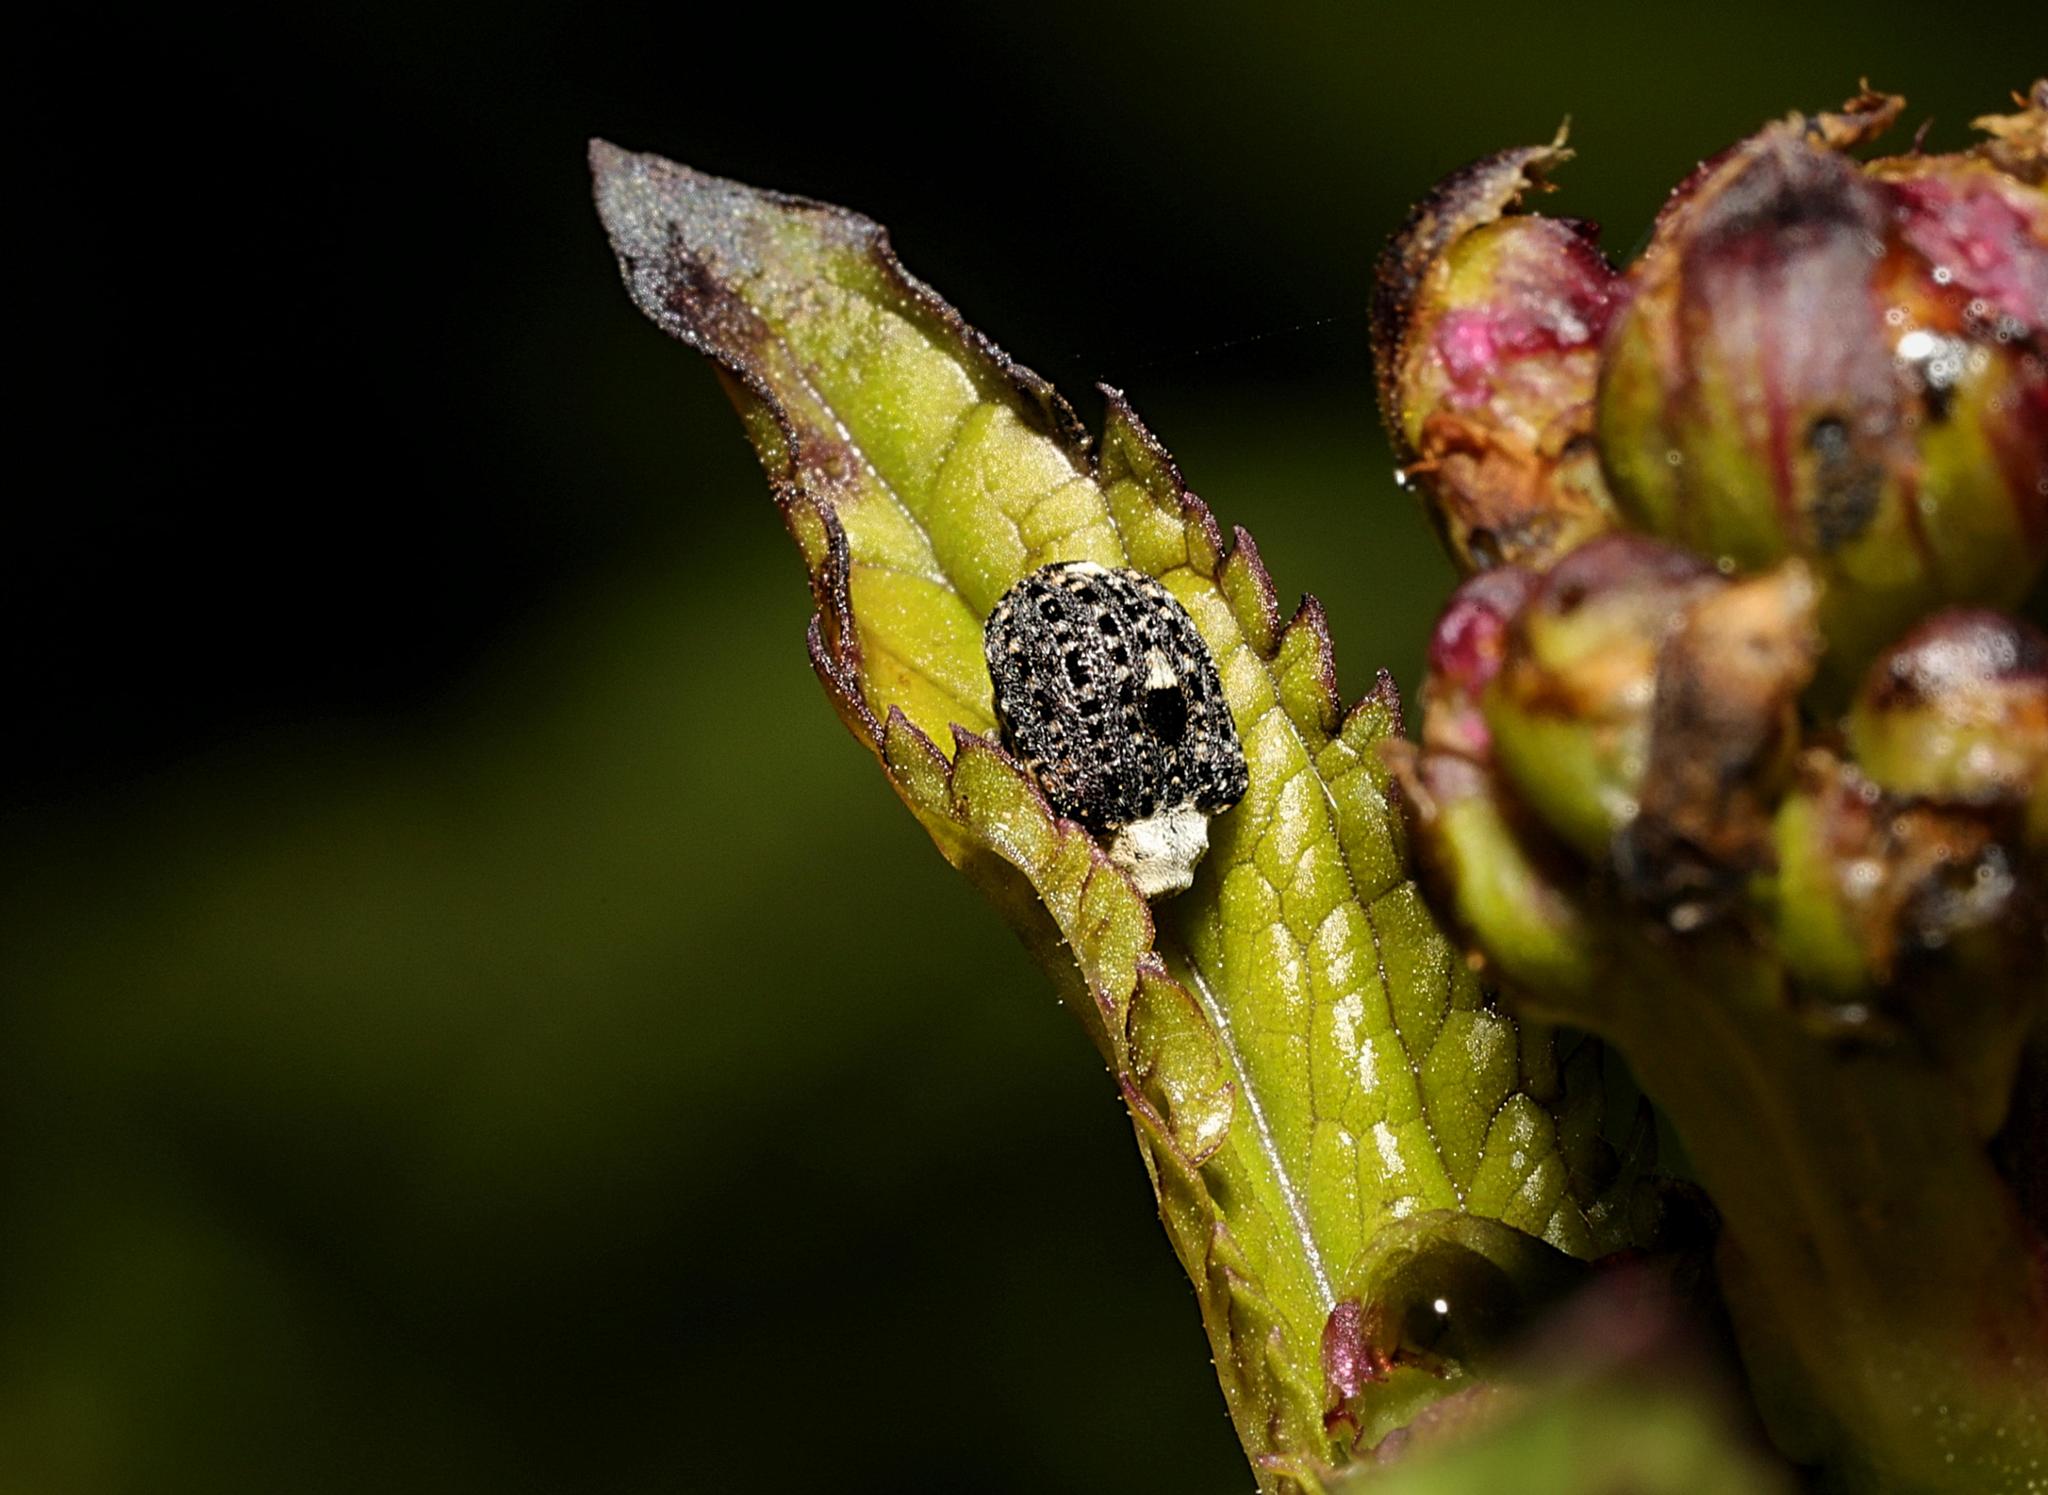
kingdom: Animalia
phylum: Arthropoda
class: Insecta
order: Coleoptera
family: Curculionidae
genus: Cionus
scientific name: Cionus scrophulariae
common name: Common figwort weevil
